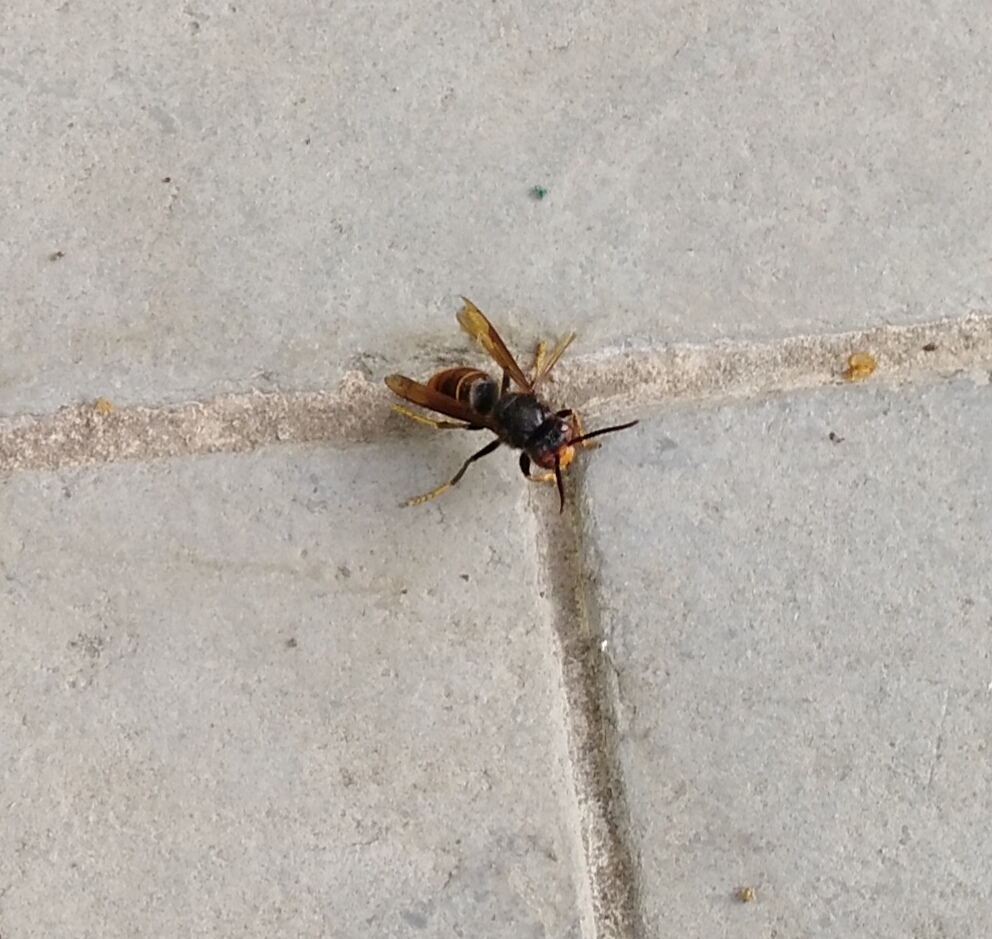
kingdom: Animalia
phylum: Arthropoda
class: Insecta
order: Hymenoptera
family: Vespidae
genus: Vespa
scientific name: Vespa velutina
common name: Asian hornet
